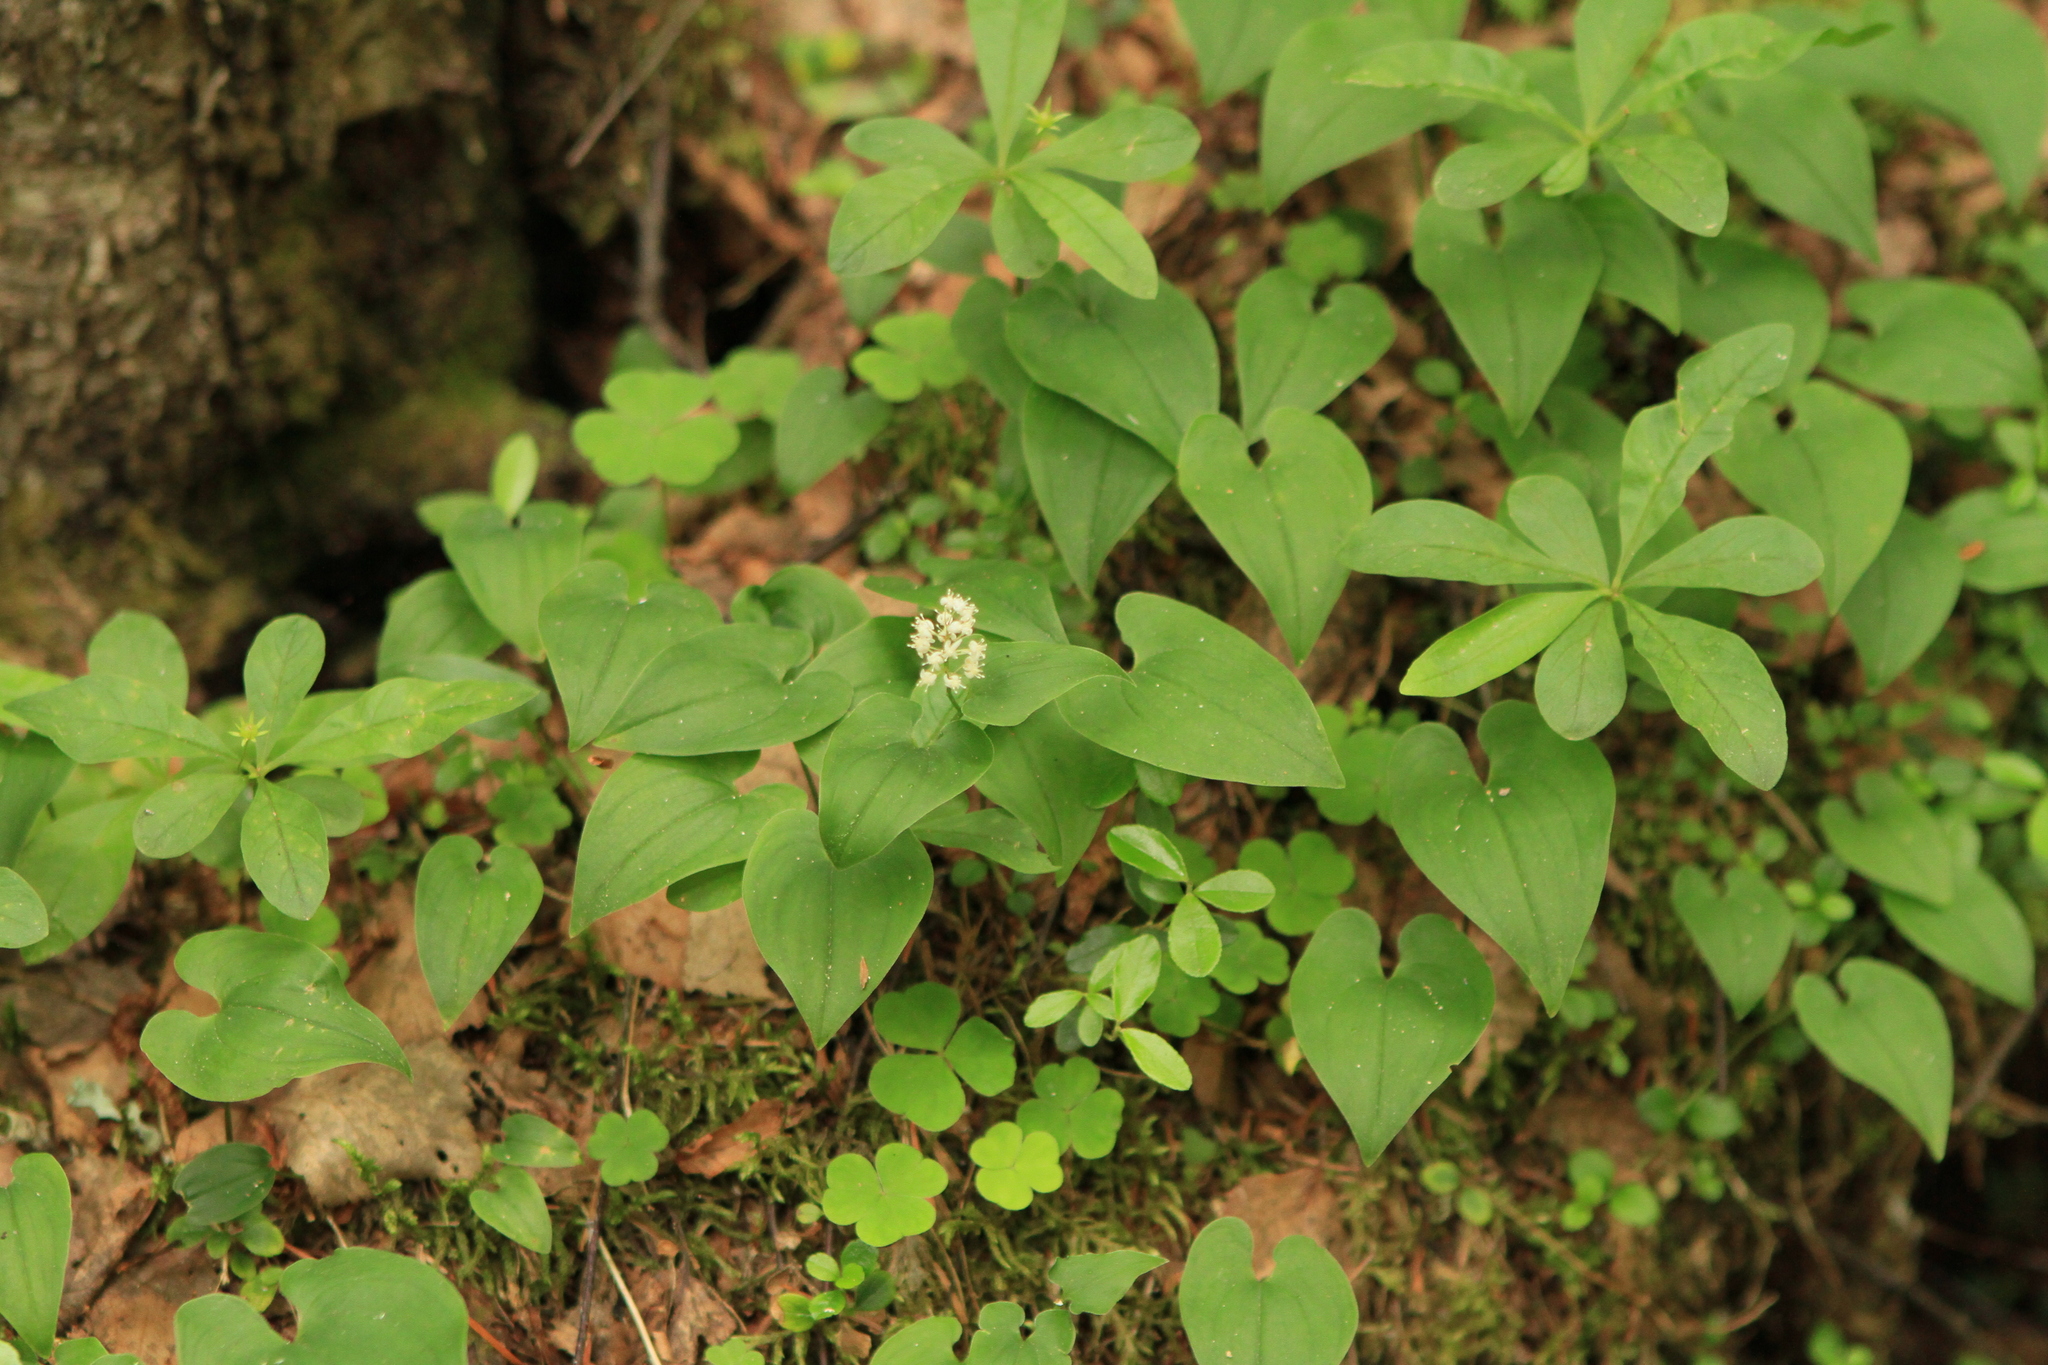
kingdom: Plantae
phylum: Tracheophyta
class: Liliopsida
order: Asparagales
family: Asparagaceae
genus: Maianthemum
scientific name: Maianthemum bifolium
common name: May lily
